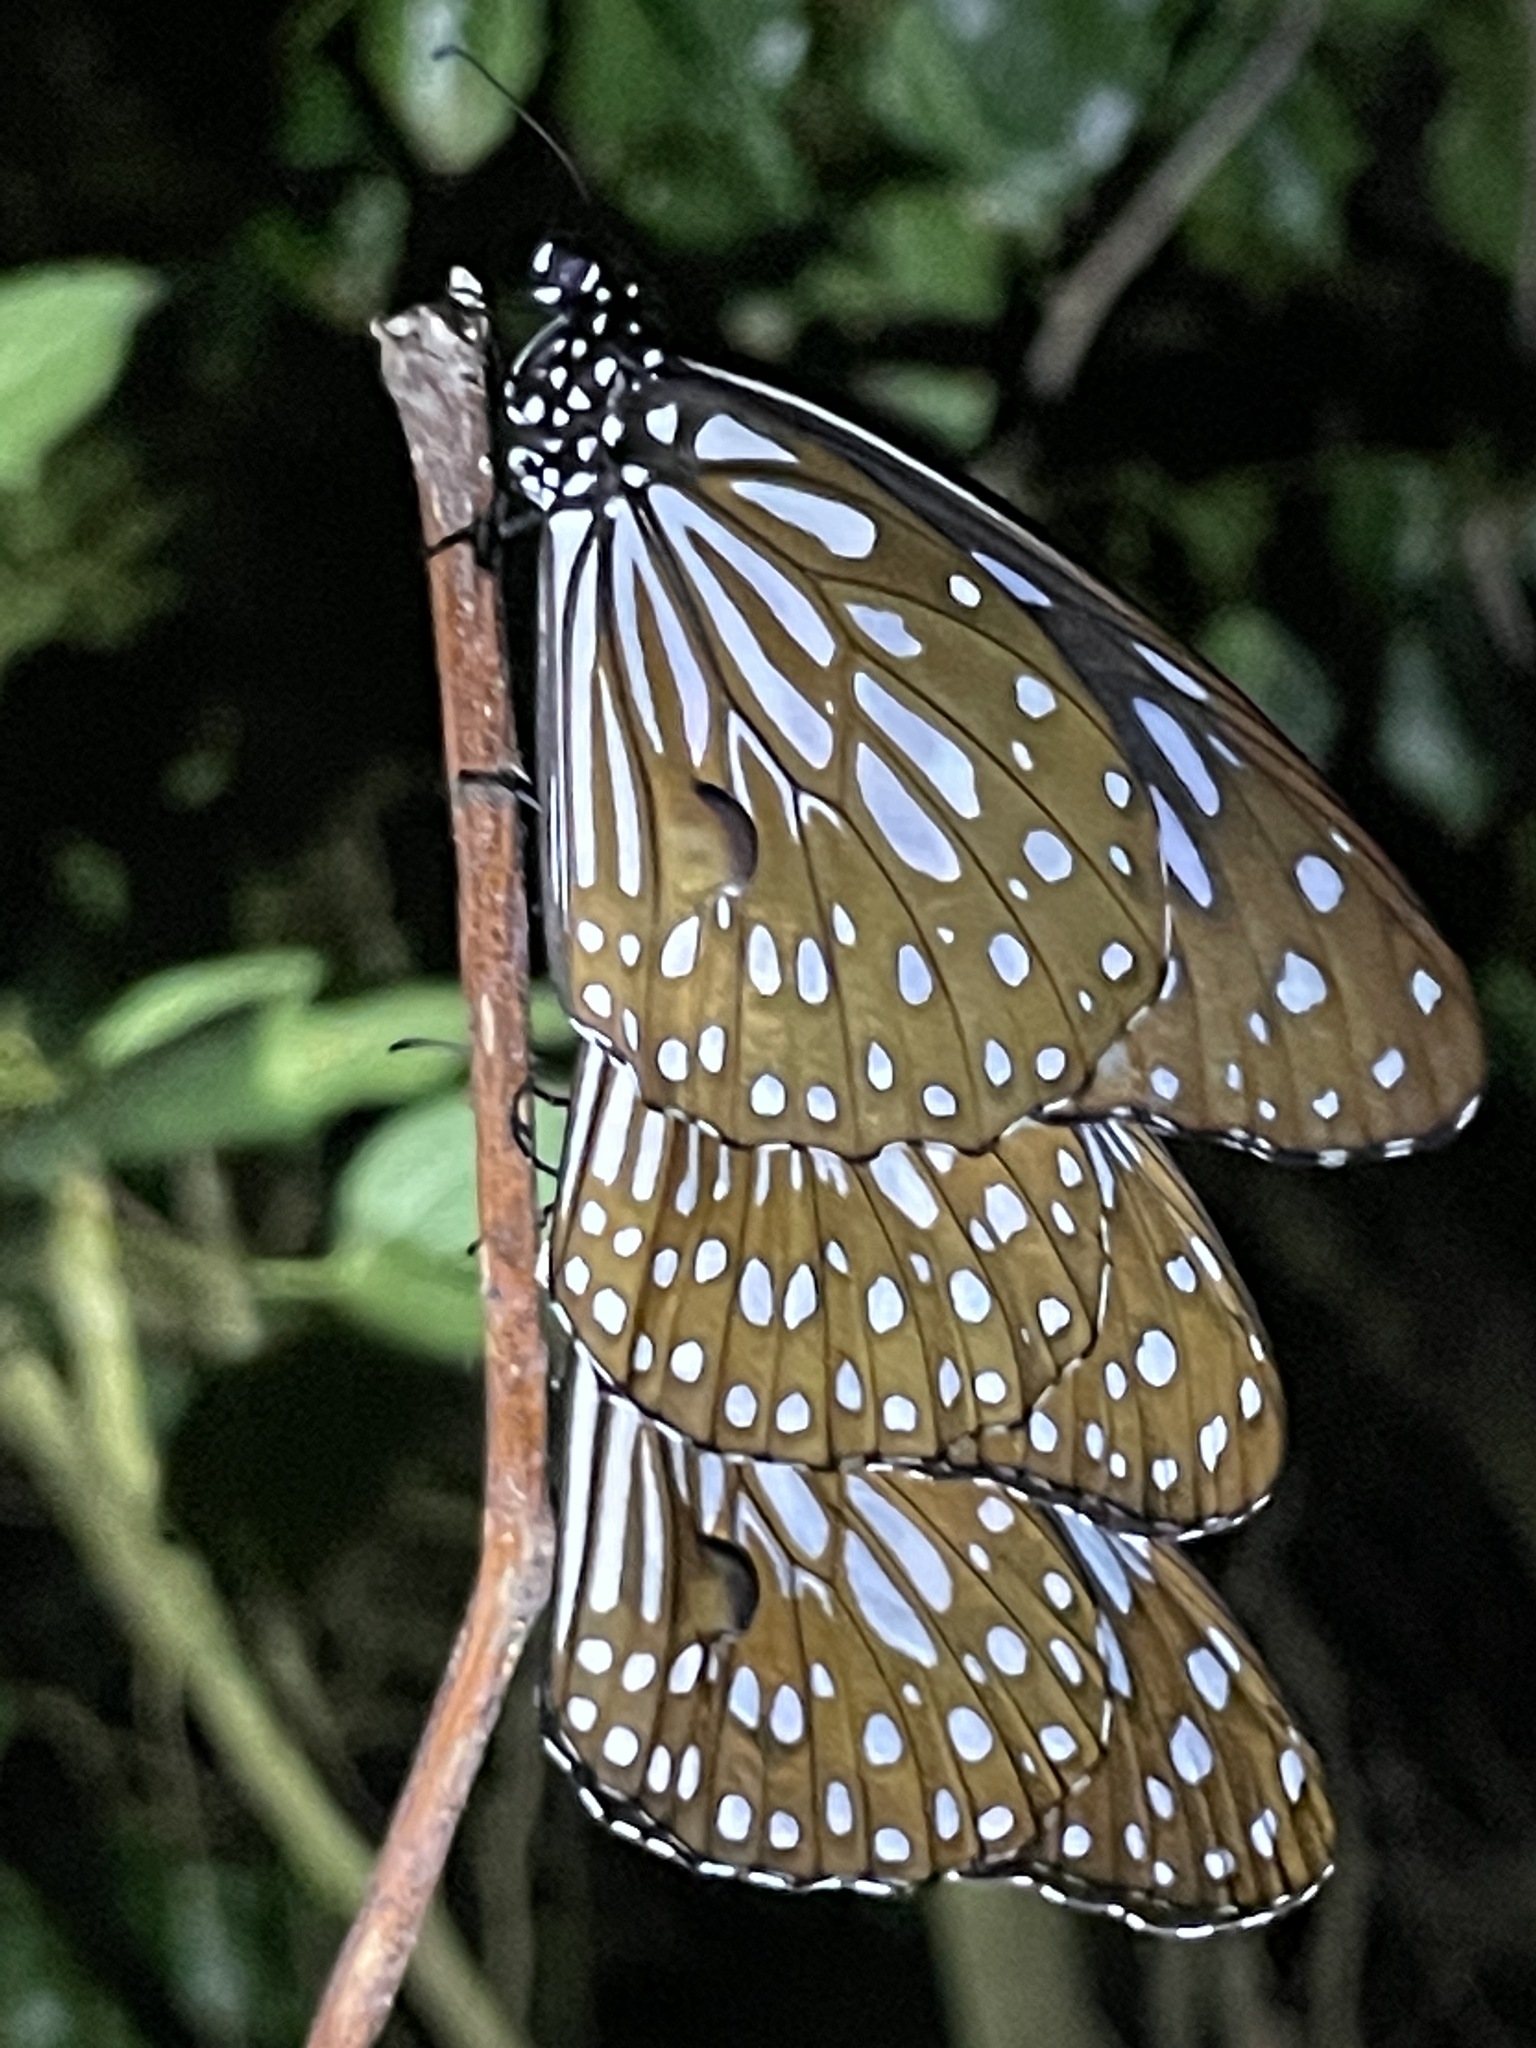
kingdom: Animalia
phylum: Arthropoda
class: Insecta
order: Lepidoptera
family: Nymphalidae
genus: Tirumala
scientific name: Tirumala limniace
